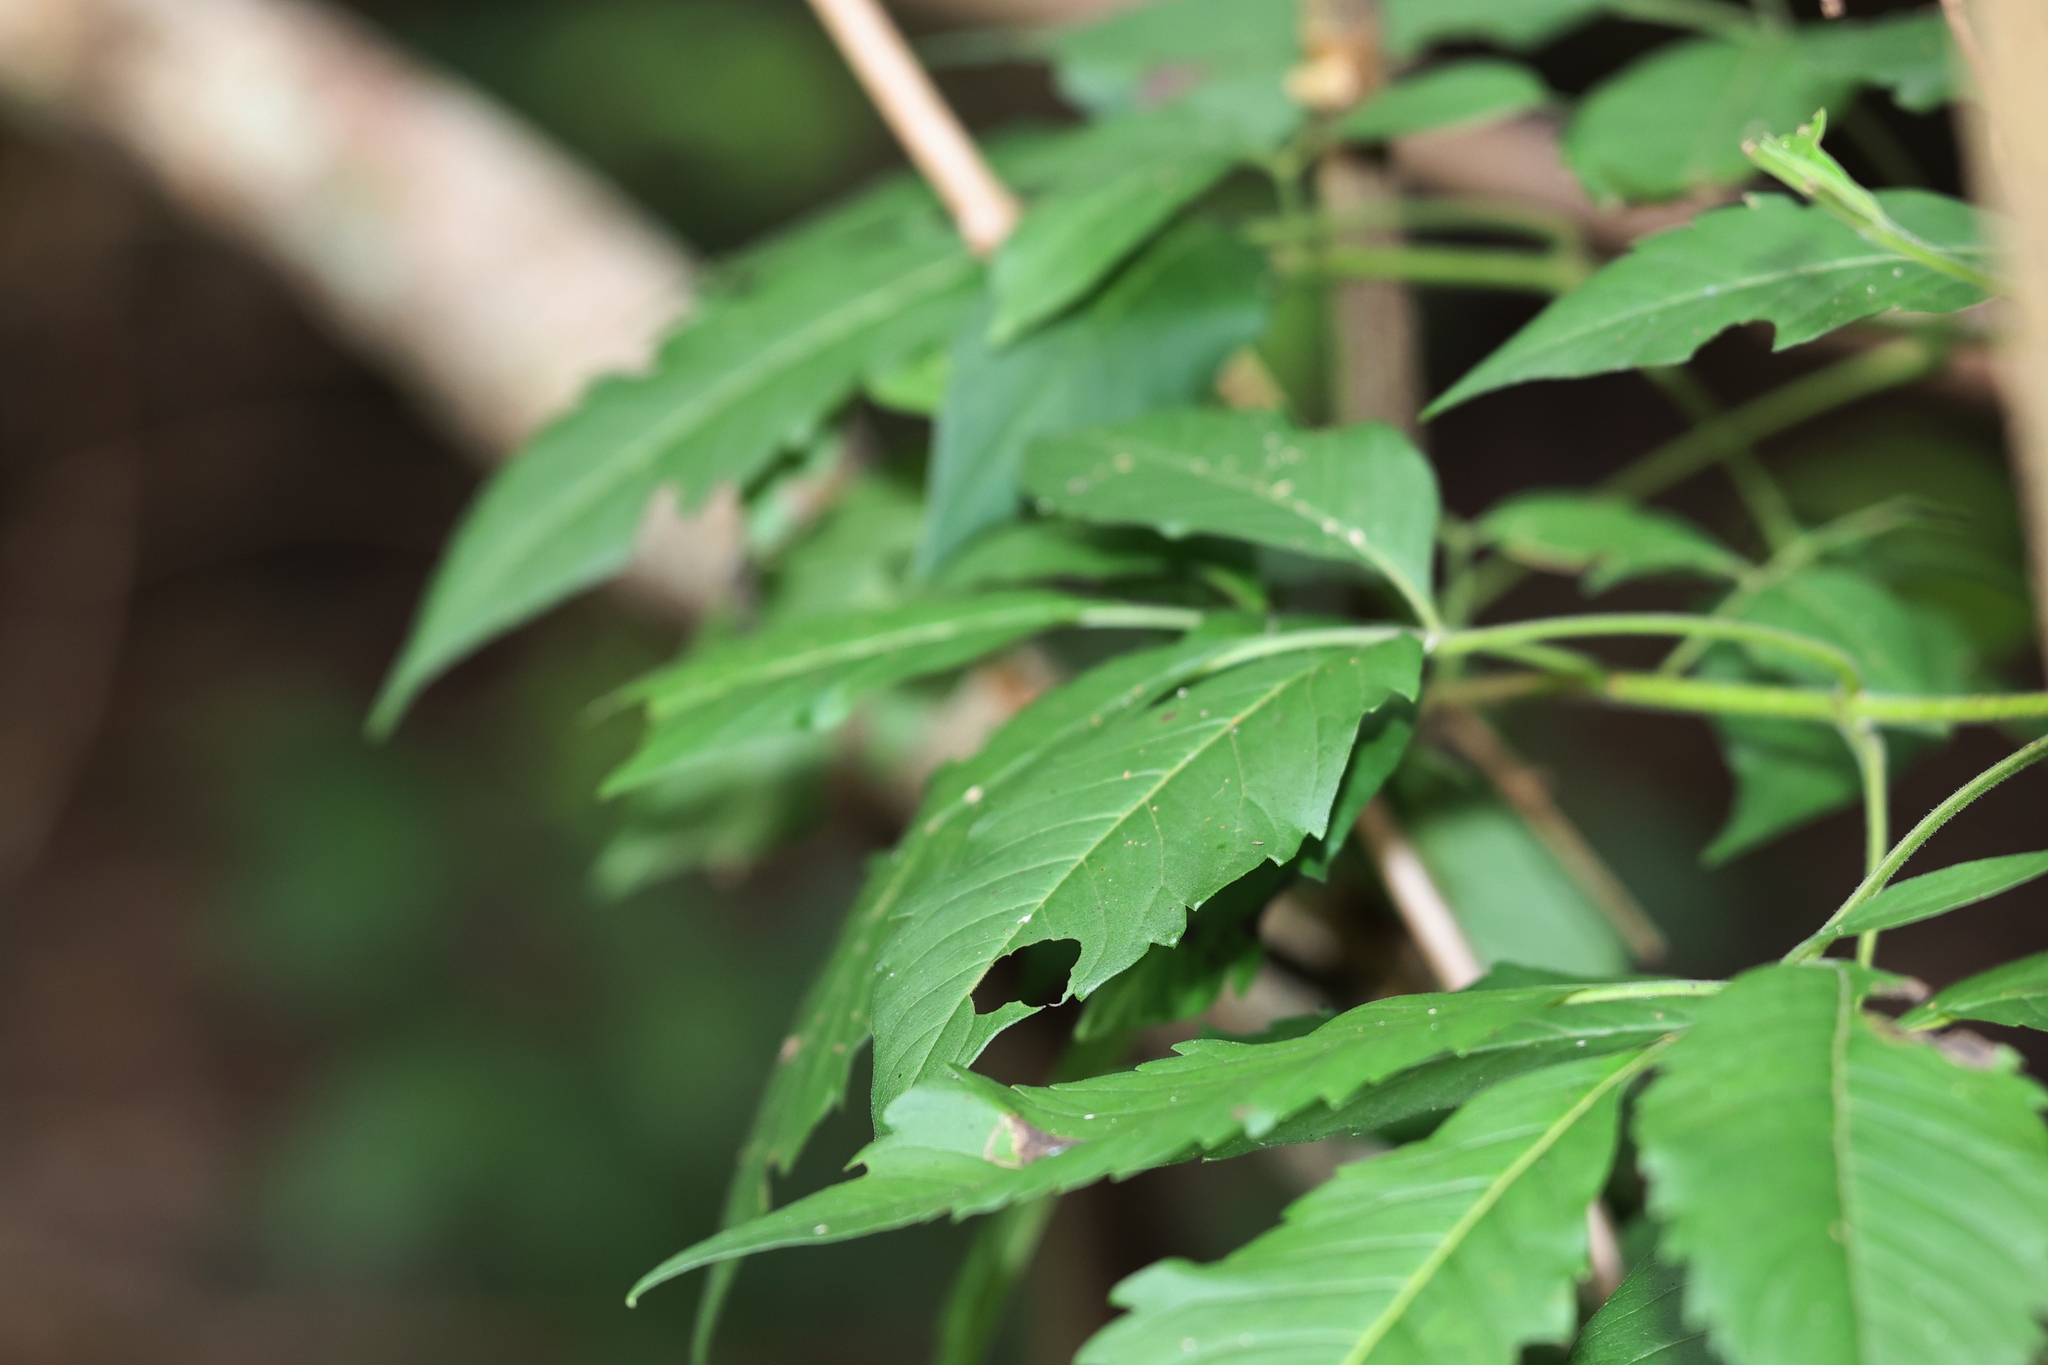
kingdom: Plantae
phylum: Tracheophyta
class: Magnoliopsida
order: Lamiales
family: Lamiaceae
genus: Vitex
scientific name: Vitex negundo
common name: Chinese chastetree
